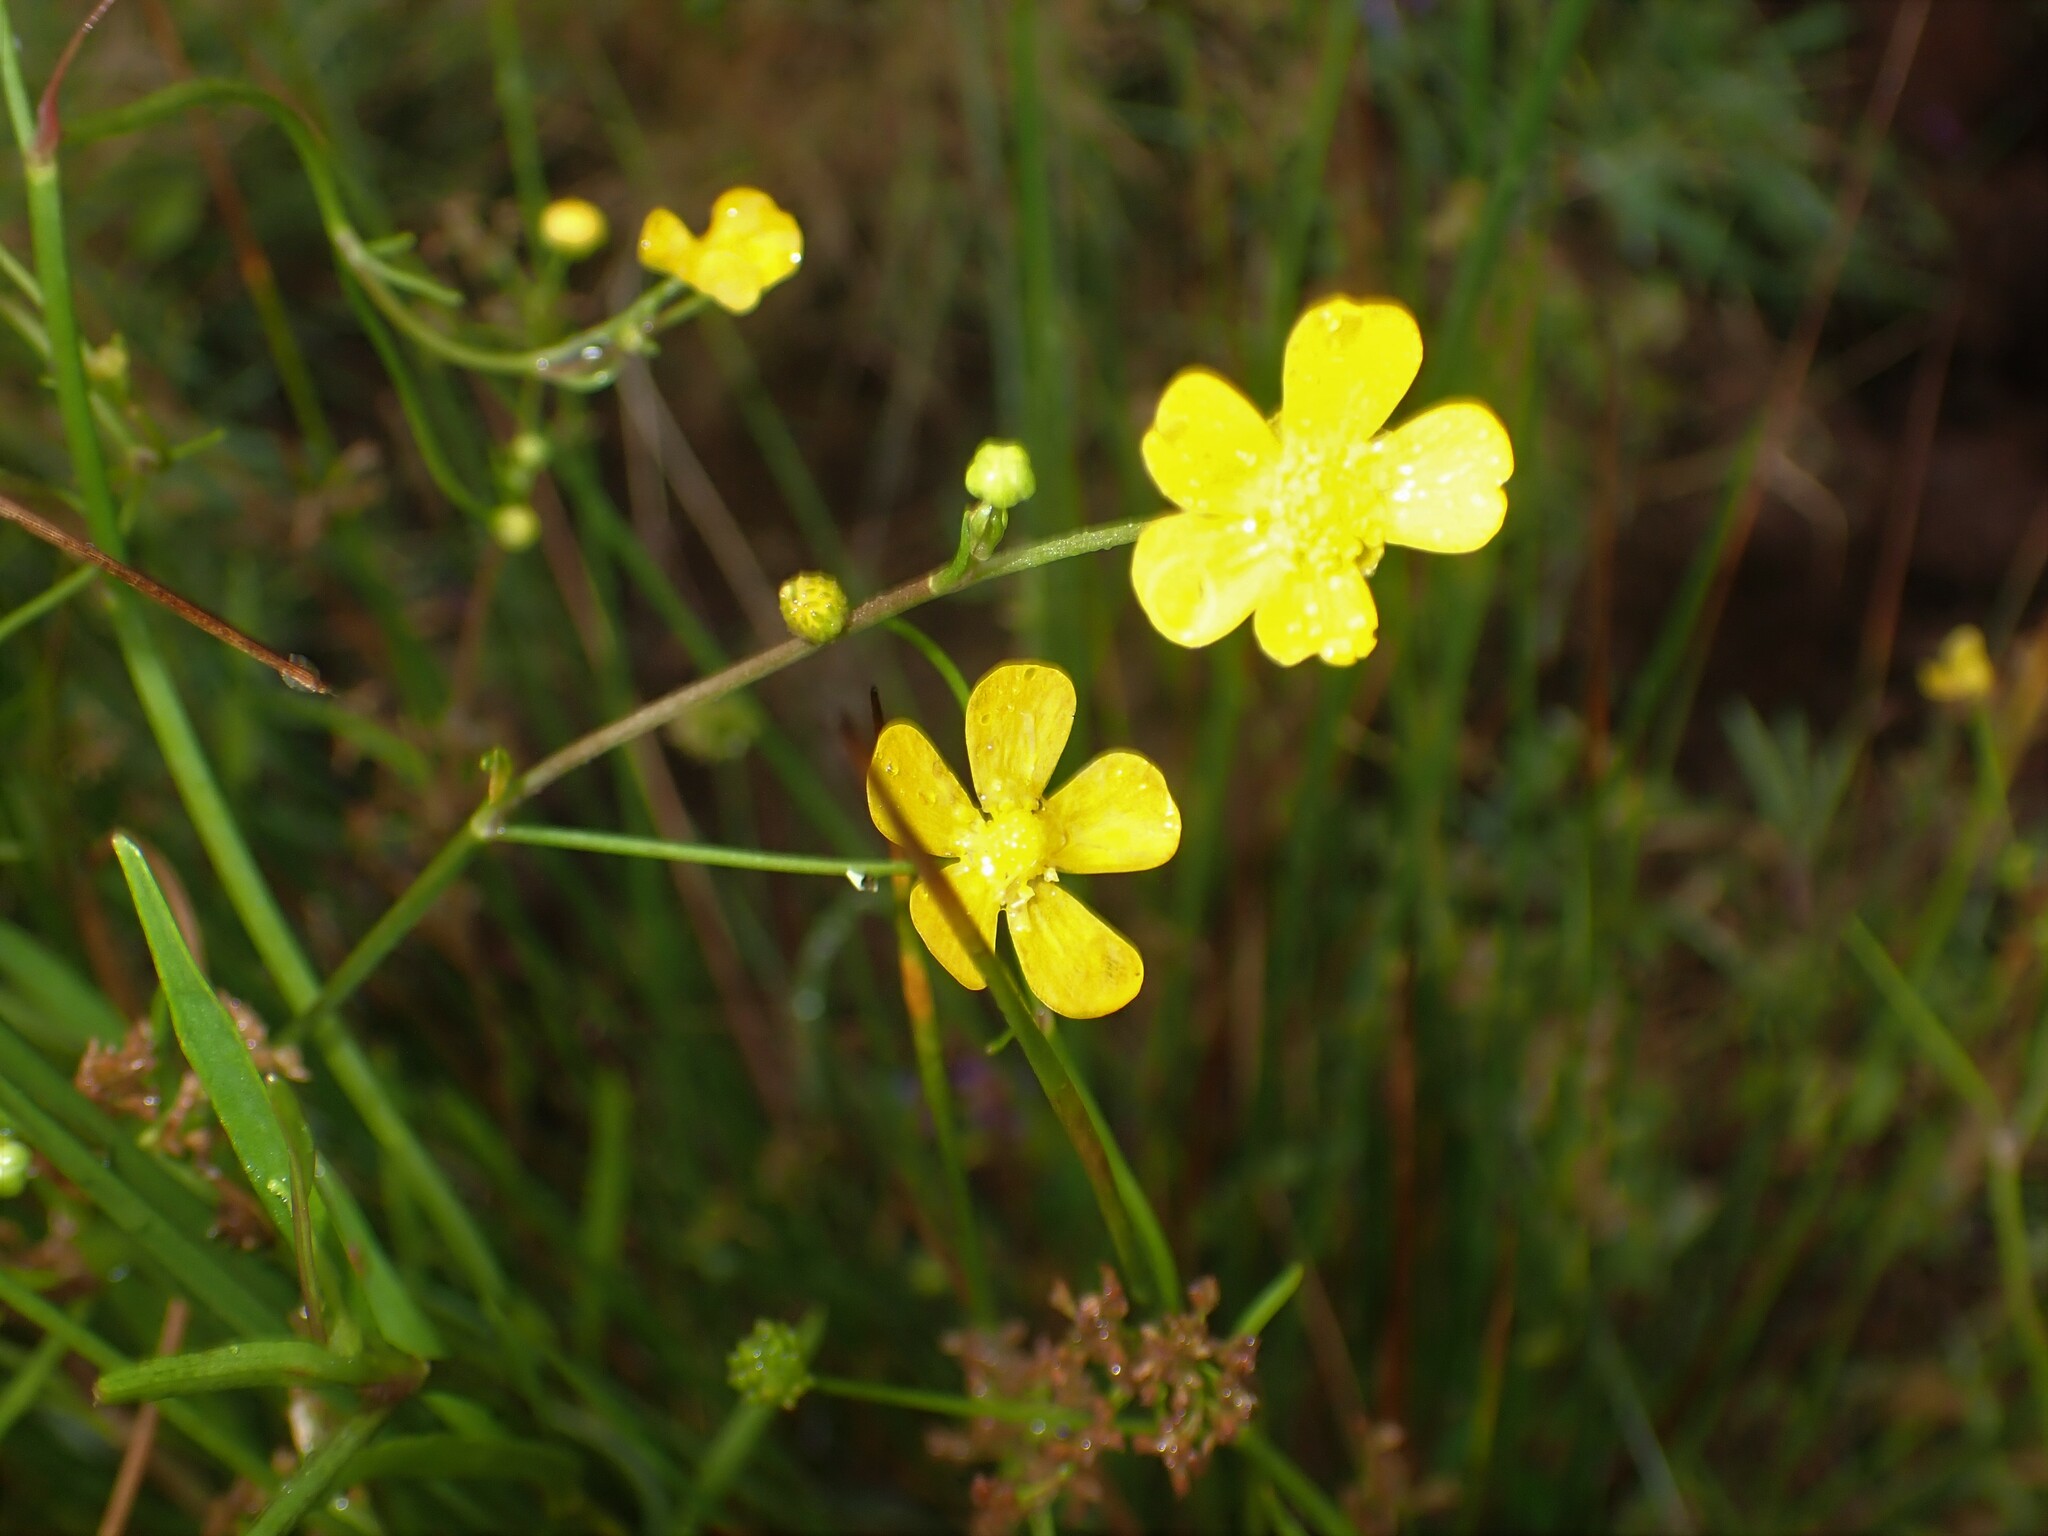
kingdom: Plantae
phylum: Tracheophyta
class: Magnoliopsida
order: Ranunculales
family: Ranunculaceae
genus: Ranunculus
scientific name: Ranunculus flammula
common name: Lesser spearwort
